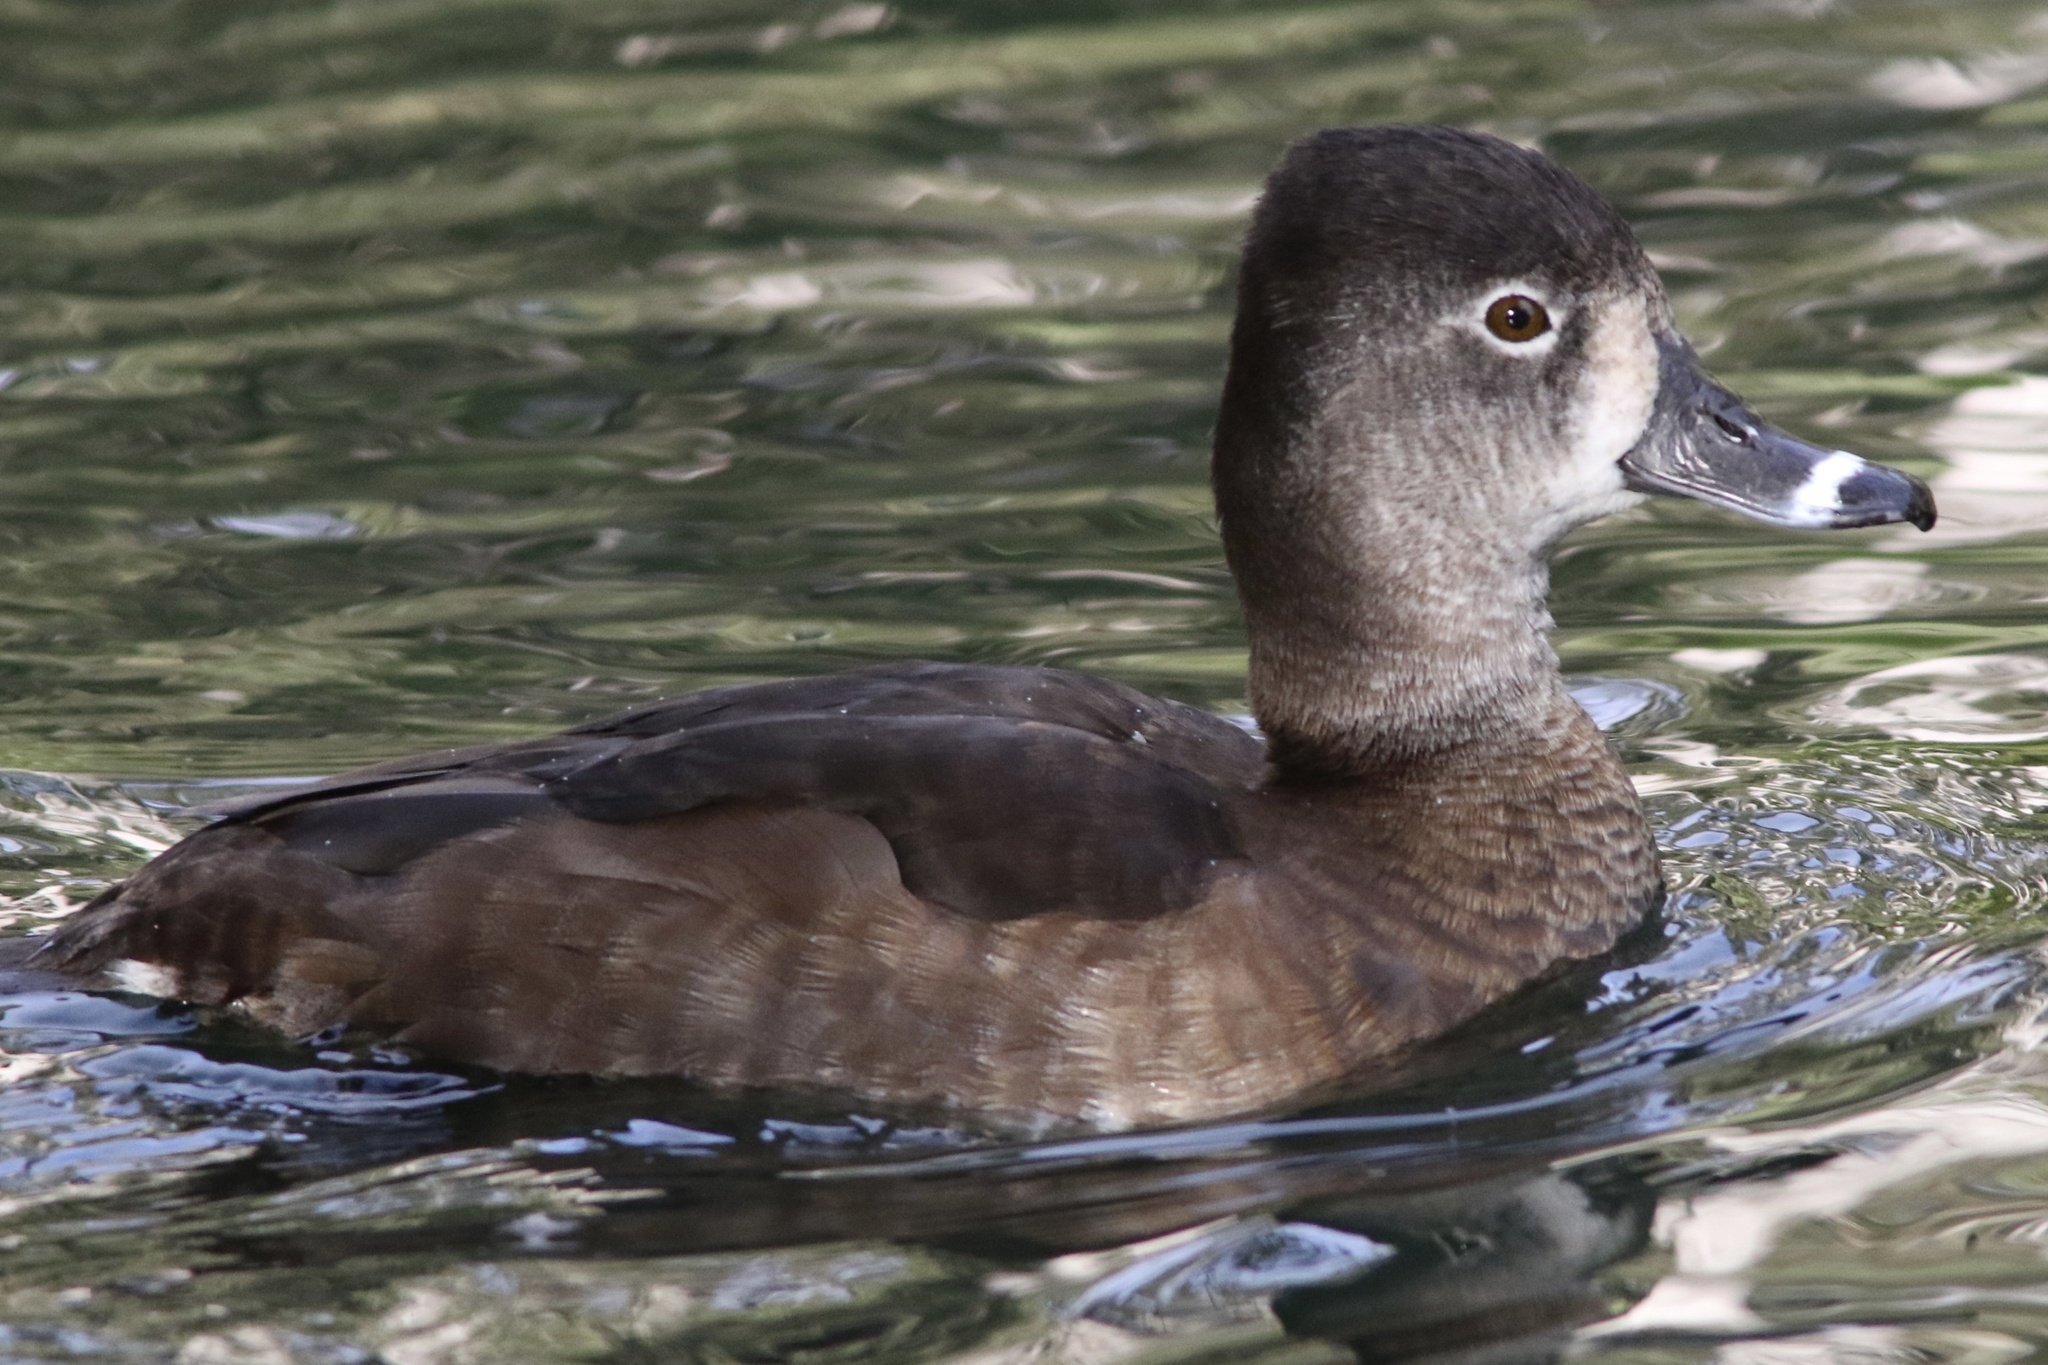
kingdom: Animalia
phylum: Chordata
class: Aves
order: Anseriformes
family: Anatidae
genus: Aythya
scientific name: Aythya collaris
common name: Ring-necked duck
